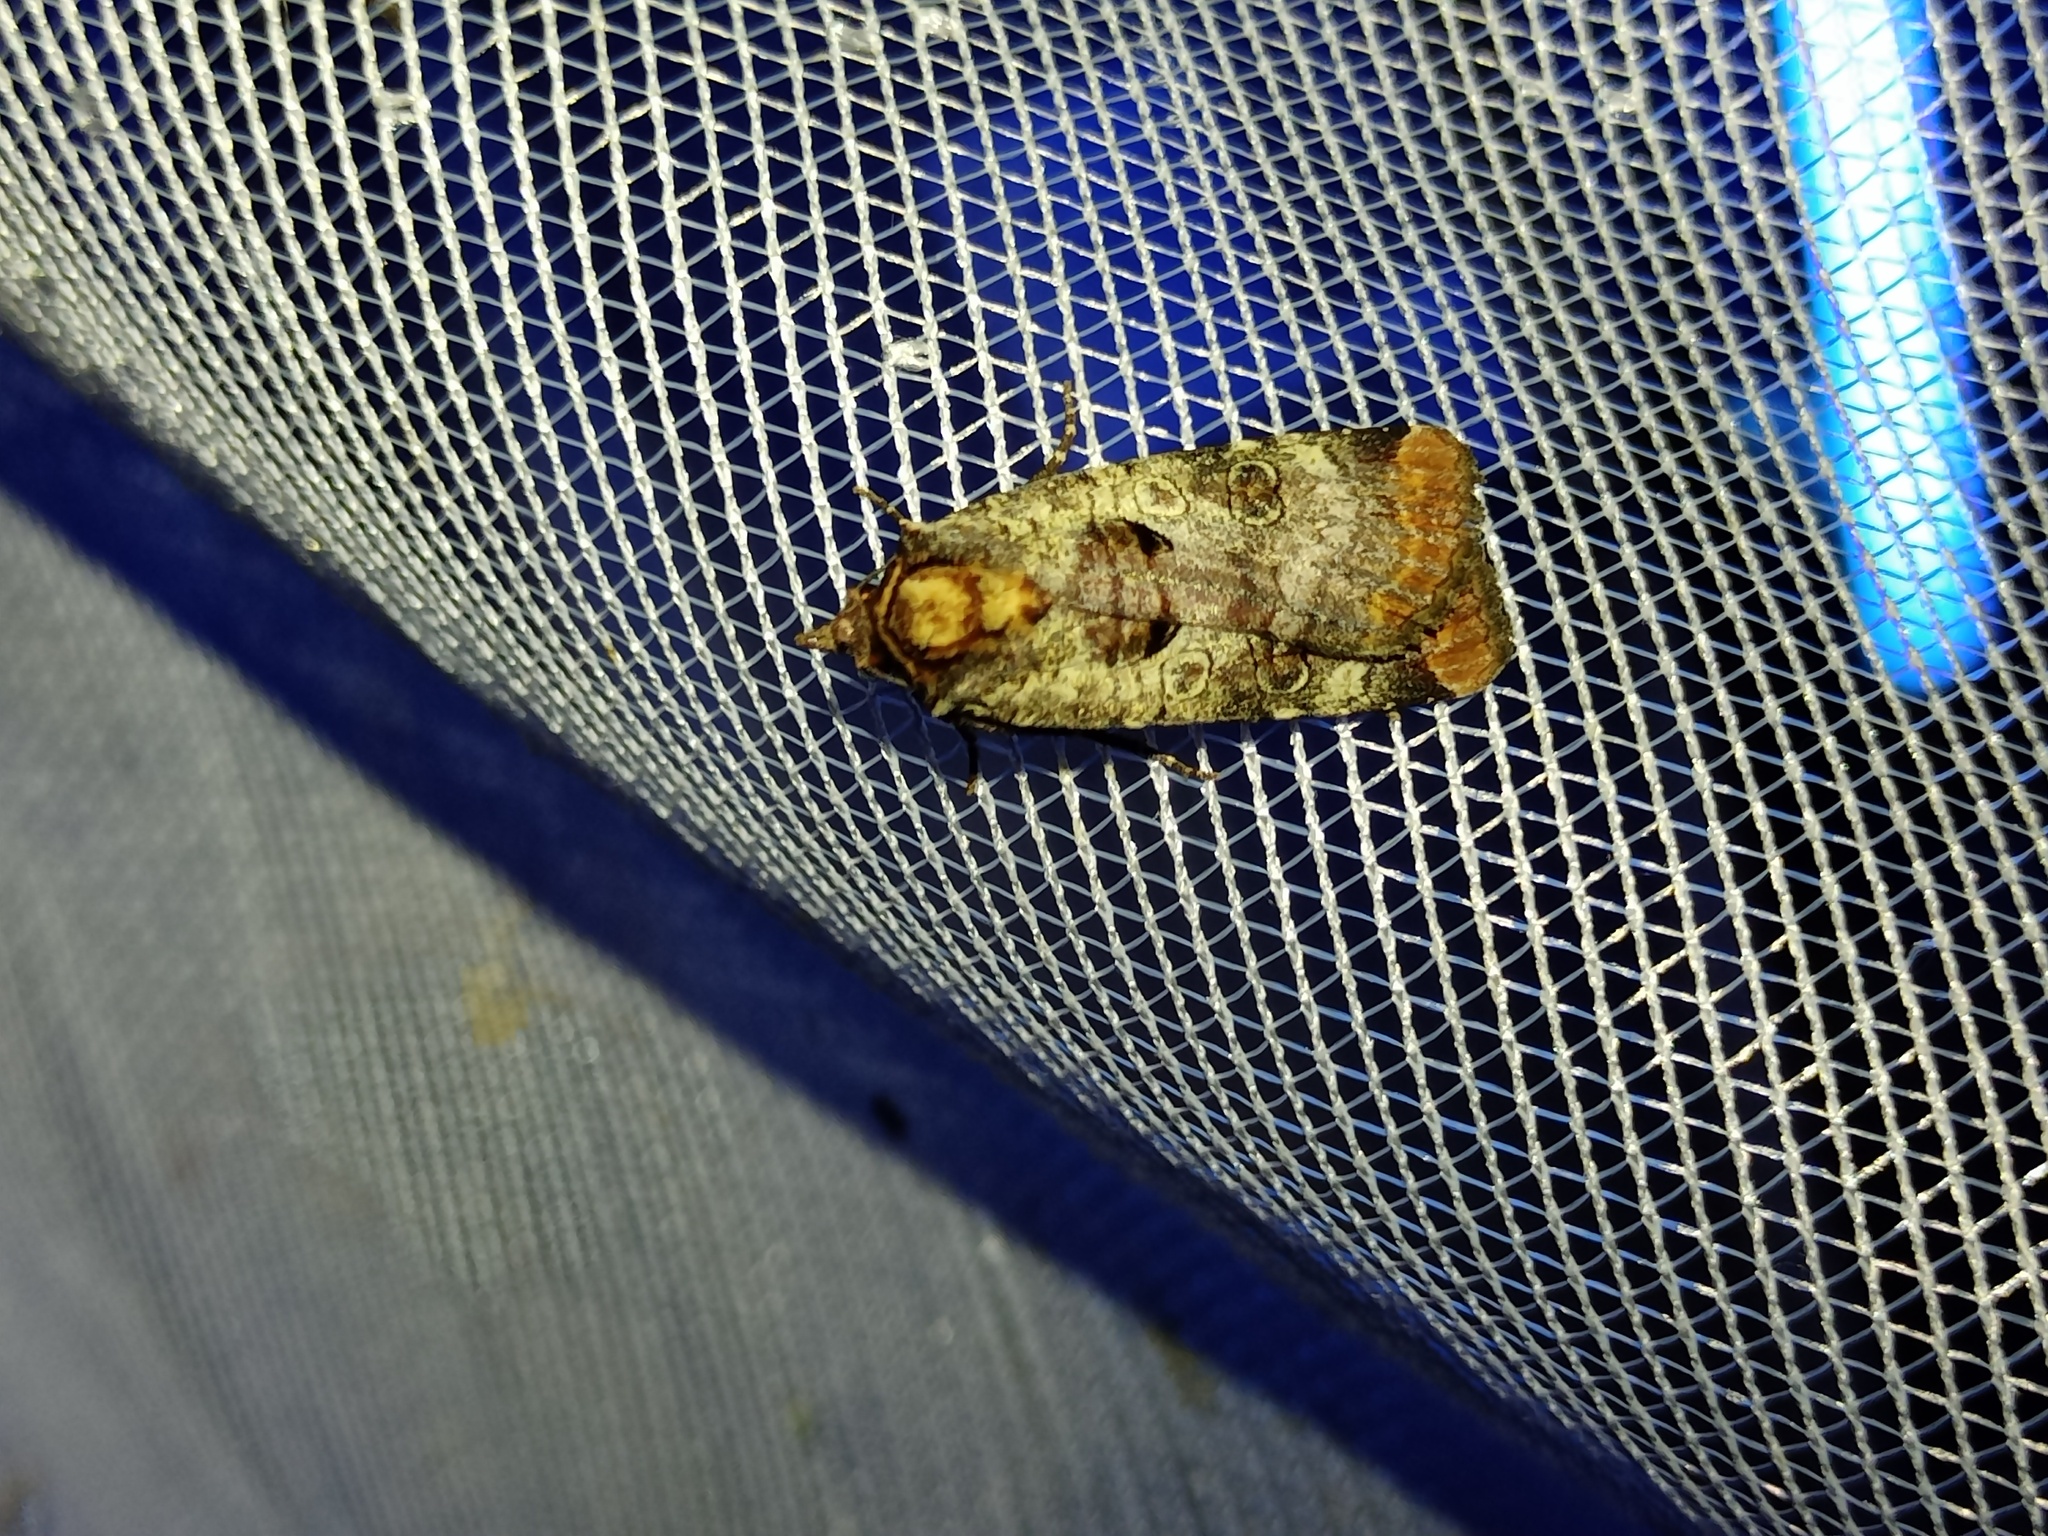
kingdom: Animalia
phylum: Arthropoda
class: Insecta
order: Lepidoptera
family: Noctuidae
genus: Epilecta
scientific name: Epilecta linogrisea
